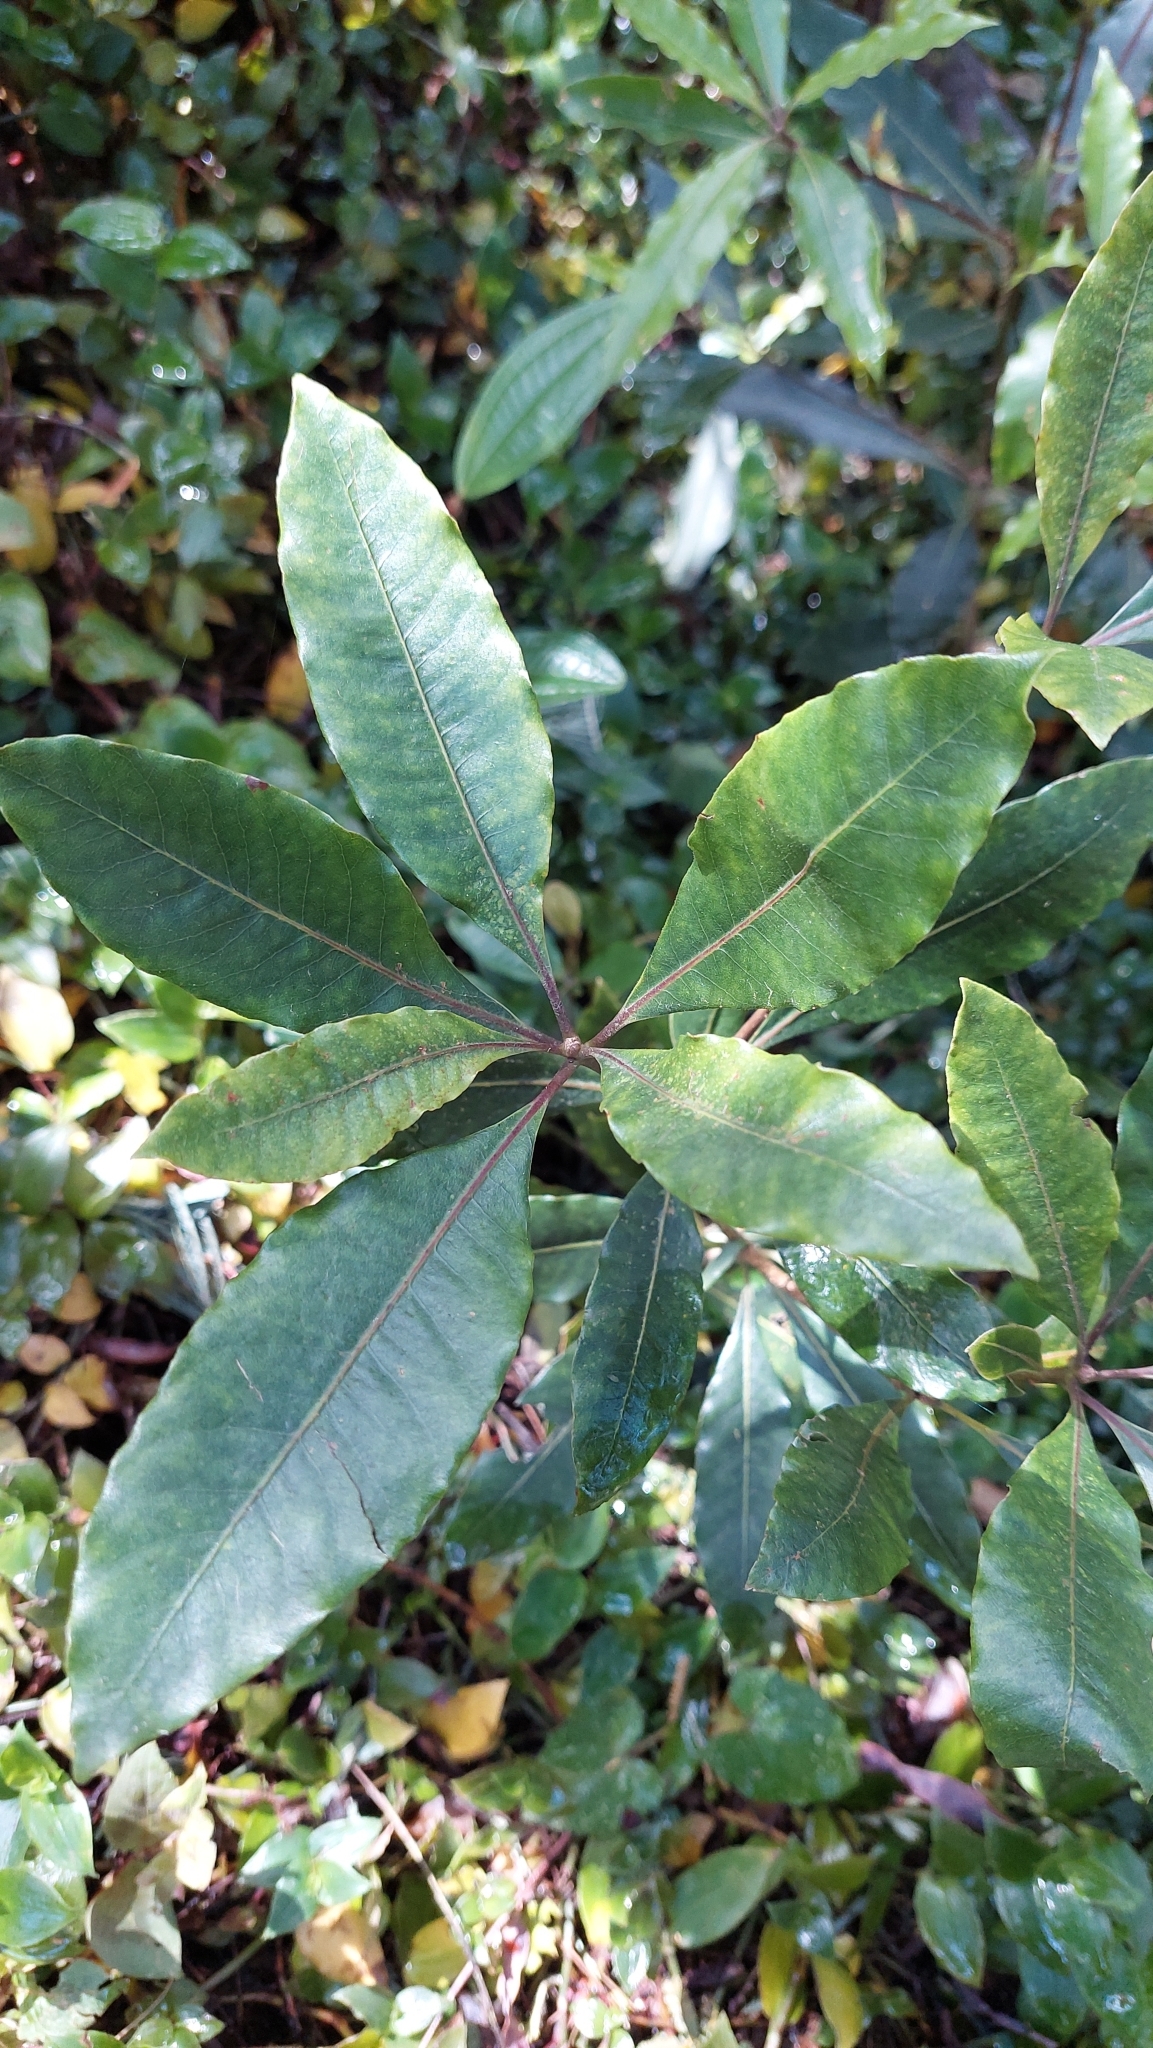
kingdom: Plantae
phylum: Tracheophyta
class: Magnoliopsida
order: Apiales
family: Pittosporaceae
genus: Pittosporum
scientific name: Pittosporum undulatum
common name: Australian cheesewood
